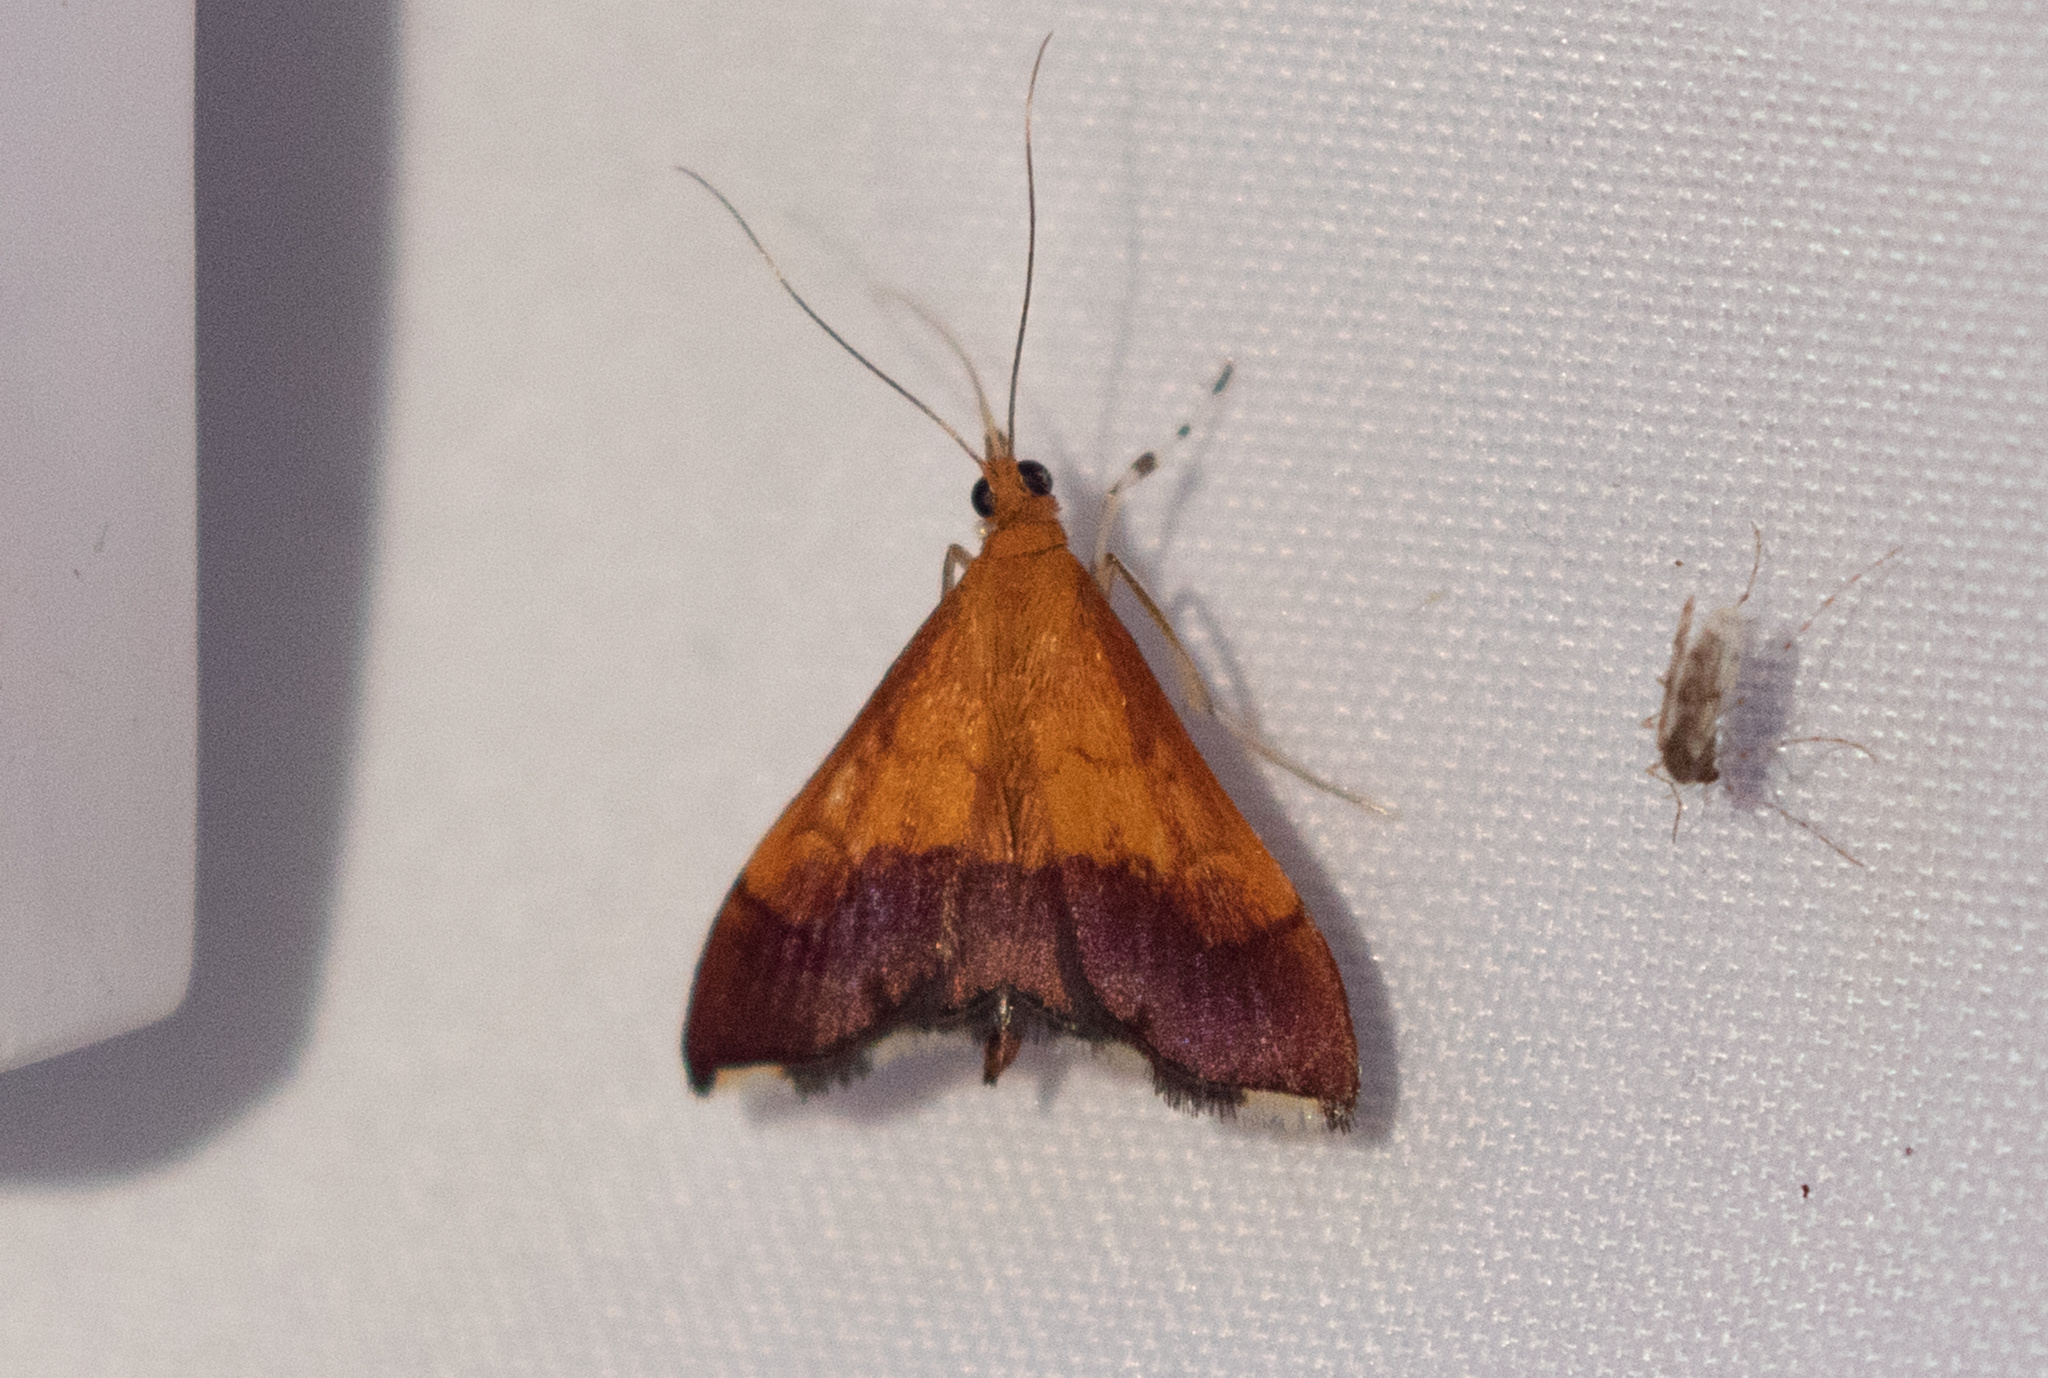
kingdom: Animalia
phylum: Arthropoda
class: Insecta
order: Lepidoptera
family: Crambidae
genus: Pyrausta
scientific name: Pyrausta bicoloralis
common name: Bicolored pyrausta moth
